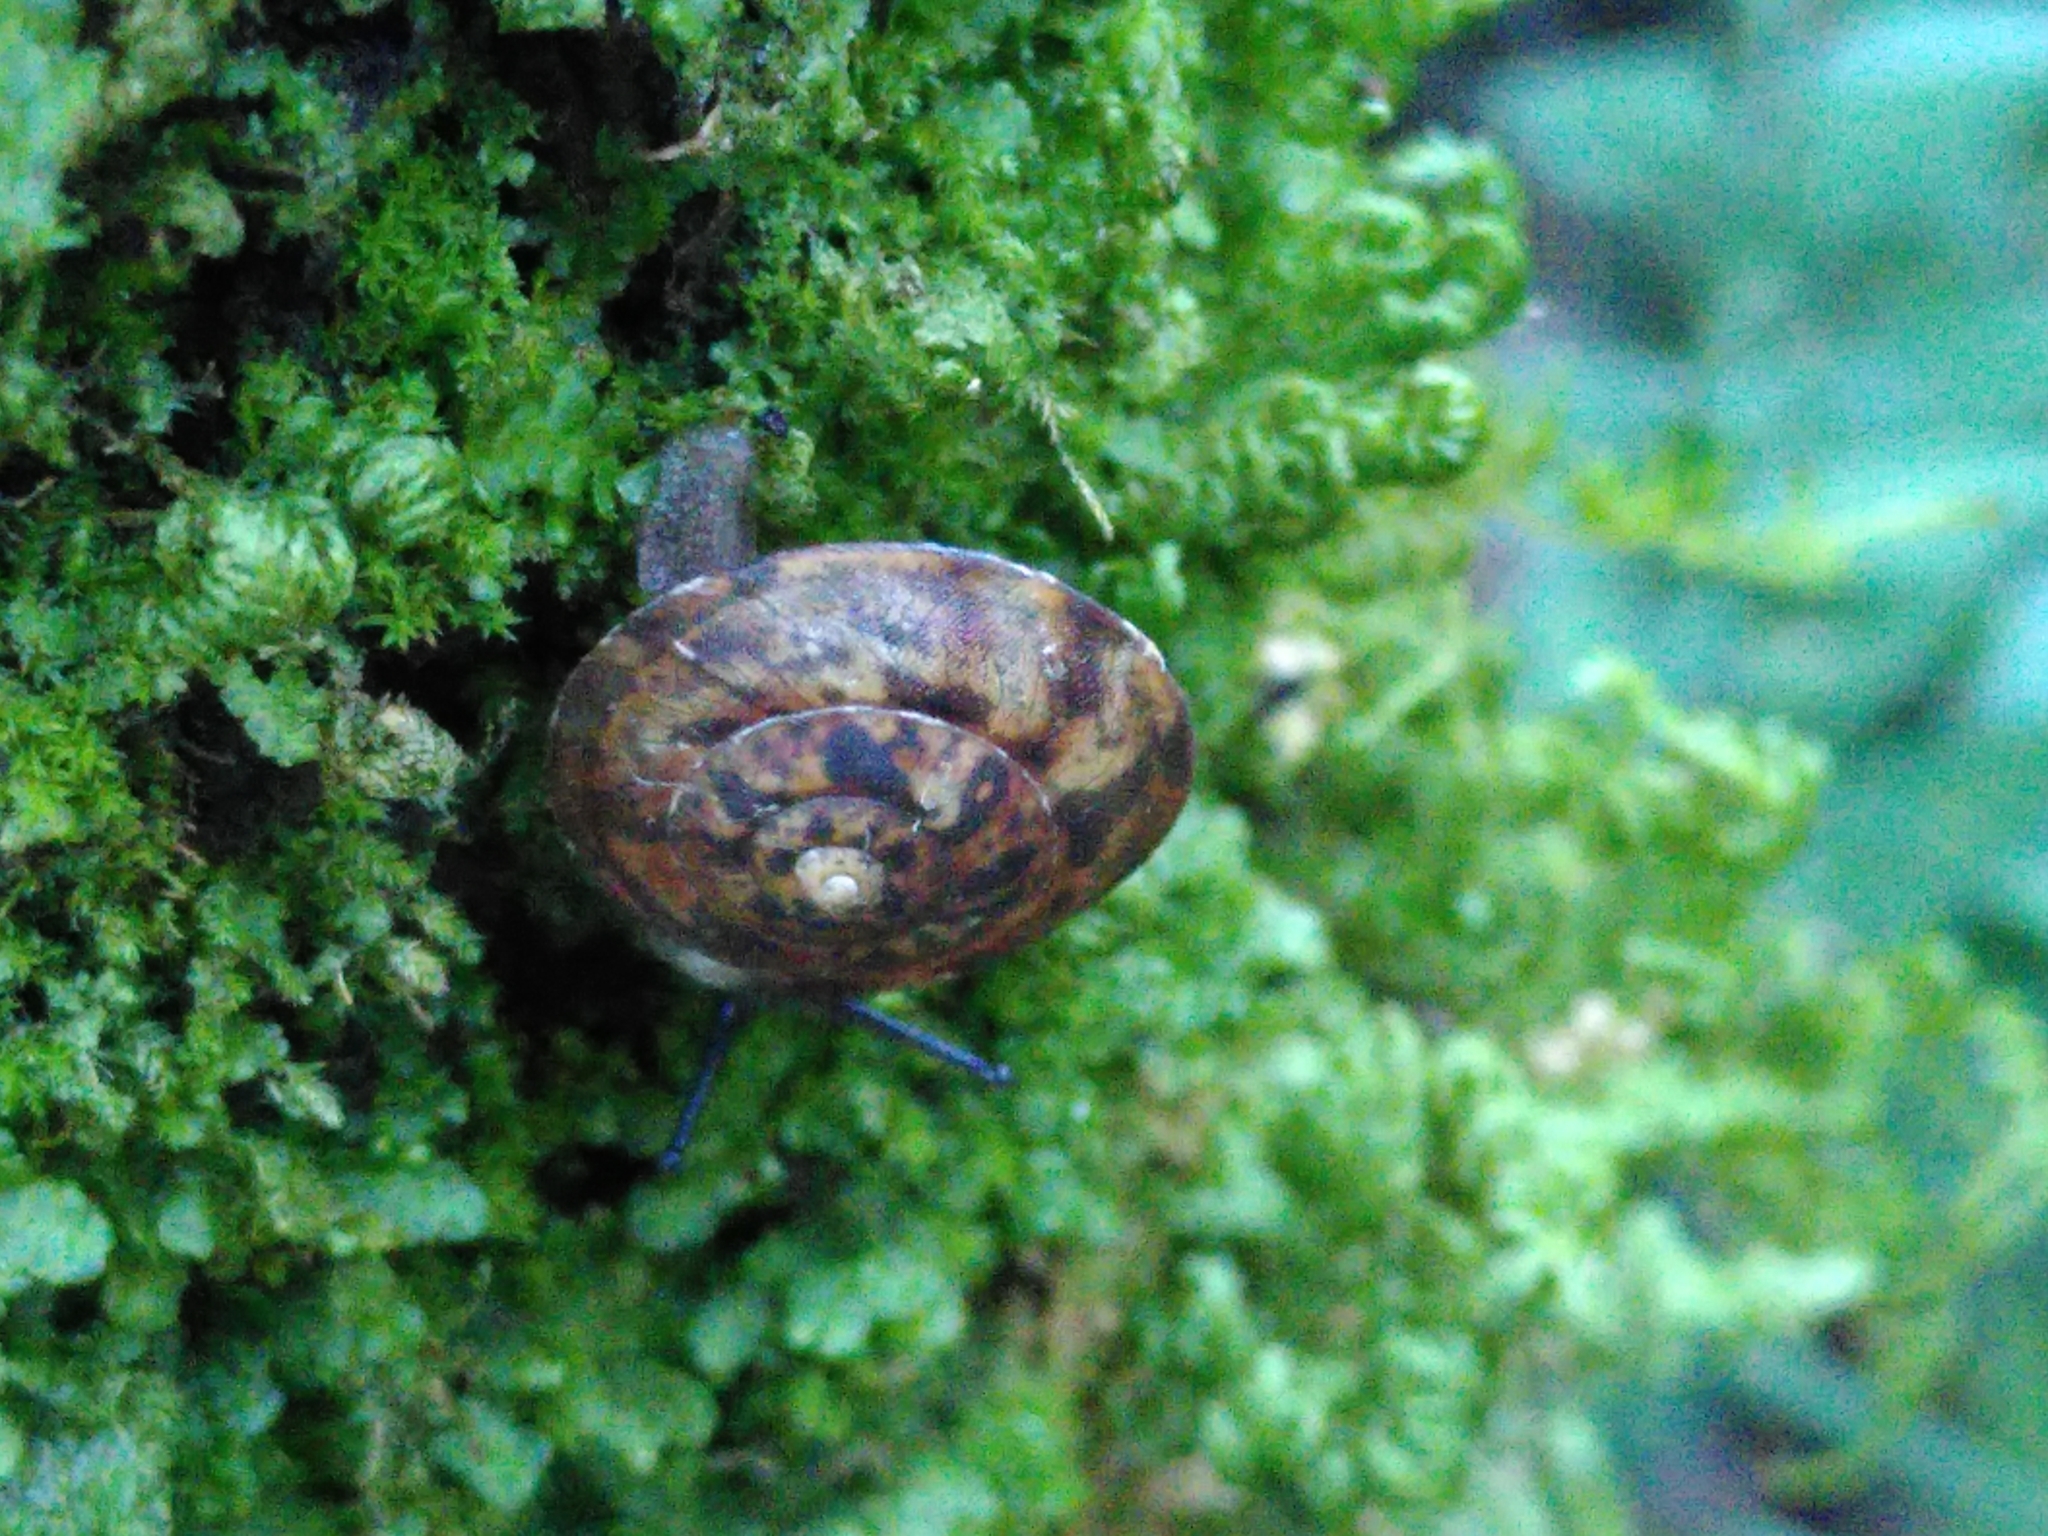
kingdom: Animalia
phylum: Mollusca
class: Gastropoda
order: Stylommatophora
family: Helicidae
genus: Helicigona
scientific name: Helicigona lapicida
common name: Lapidary snail
